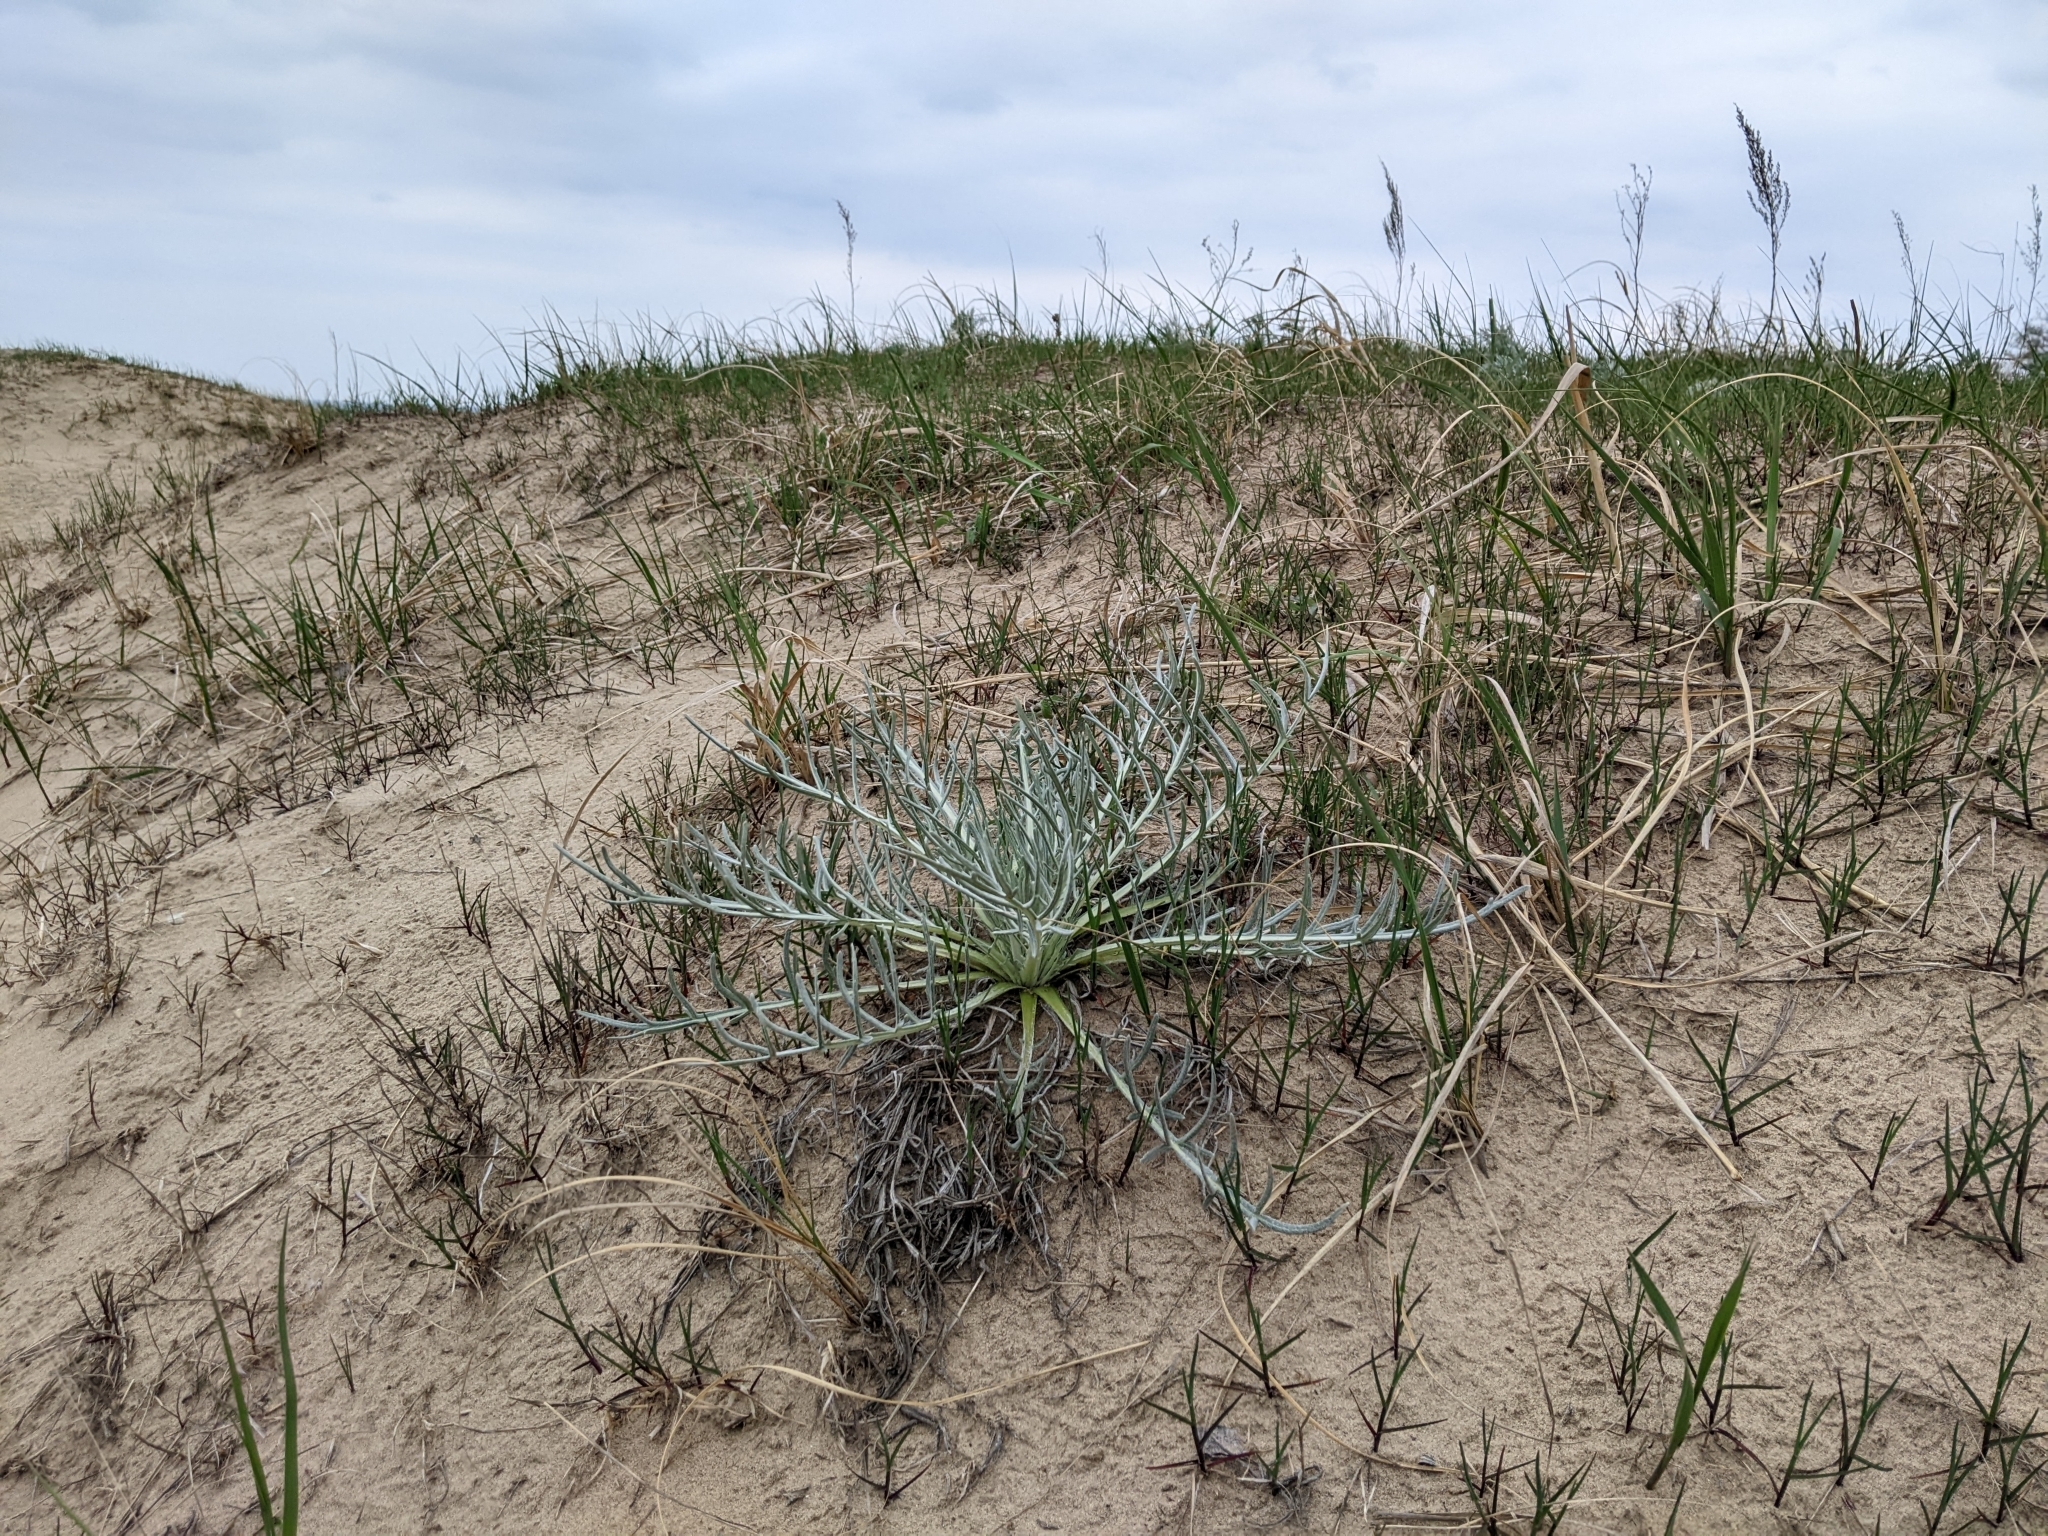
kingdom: Plantae
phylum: Tracheophyta
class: Magnoliopsida
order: Asterales
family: Asteraceae
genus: Cirsium
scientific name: Cirsium pitcheri
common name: Dune thistle
